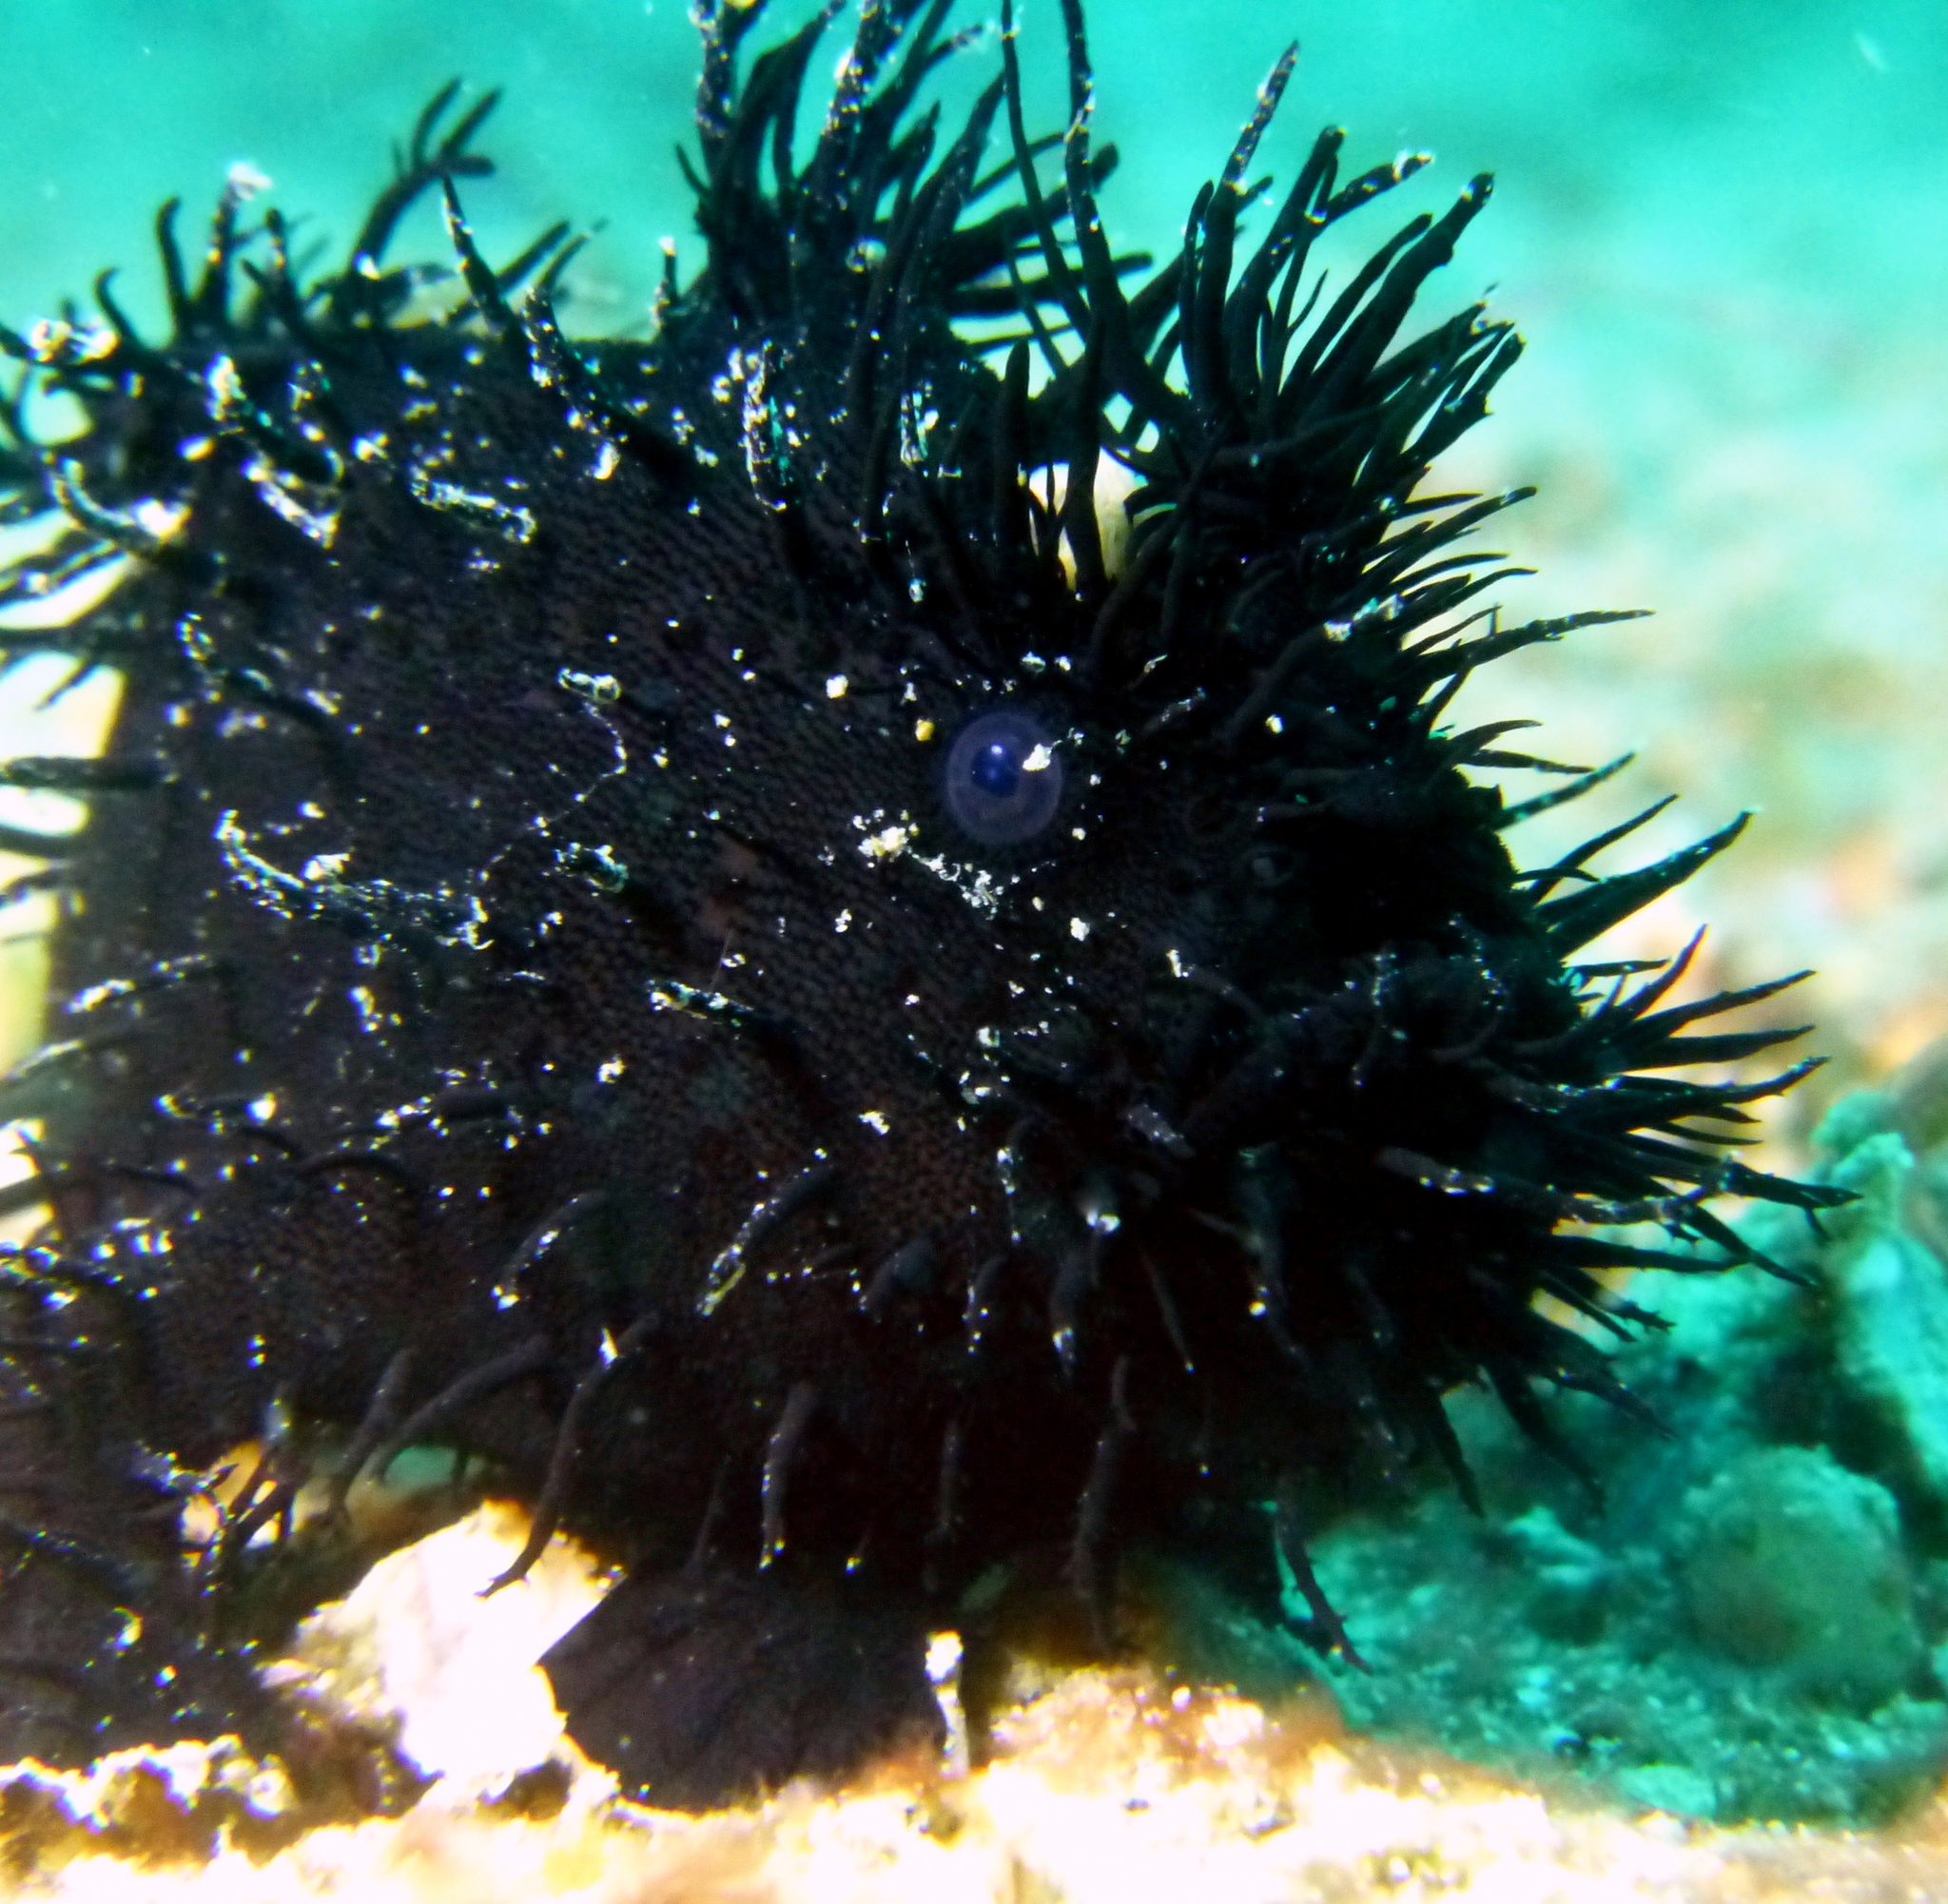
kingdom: Animalia
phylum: Chordata
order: Lophiiformes
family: Antennariidae
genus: Antennarius
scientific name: Antennarius striatus
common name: Striated frogfish
